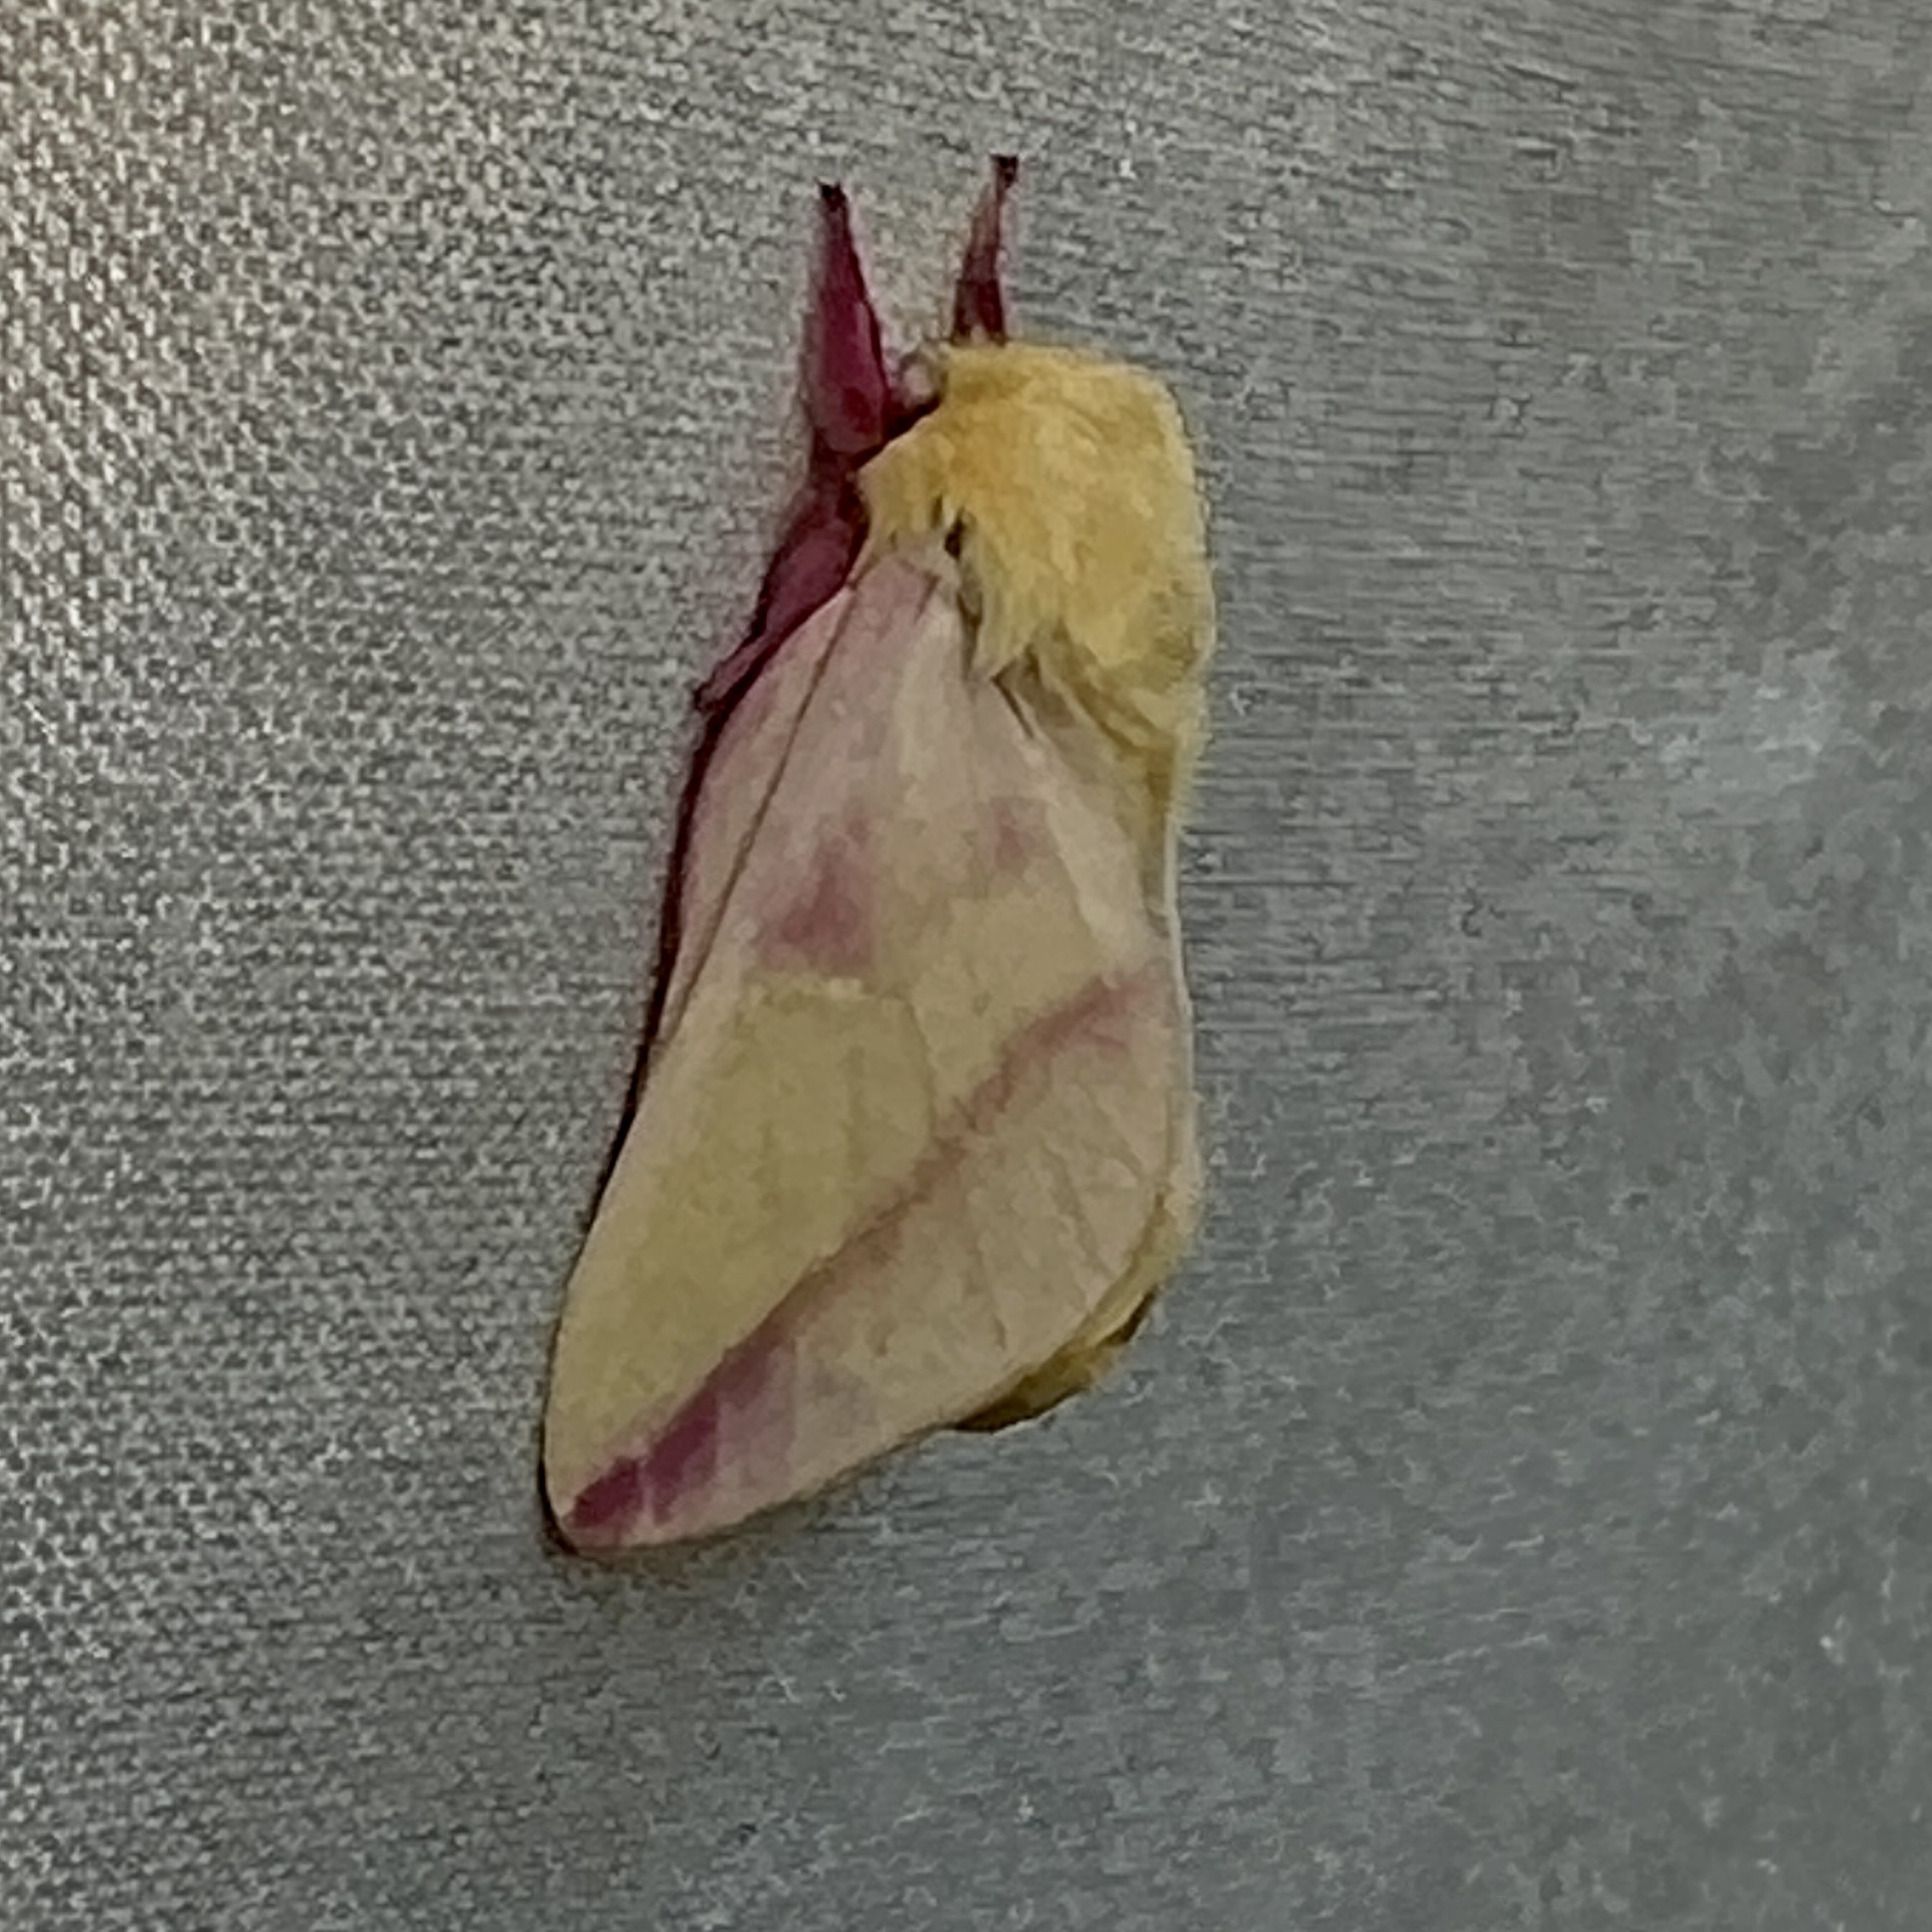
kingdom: Animalia
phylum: Arthropoda
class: Insecta
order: Lepidoptera
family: Saturniidae
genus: Dryocampa
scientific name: Dryocampa rubicunda
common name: Rosy maple moth
